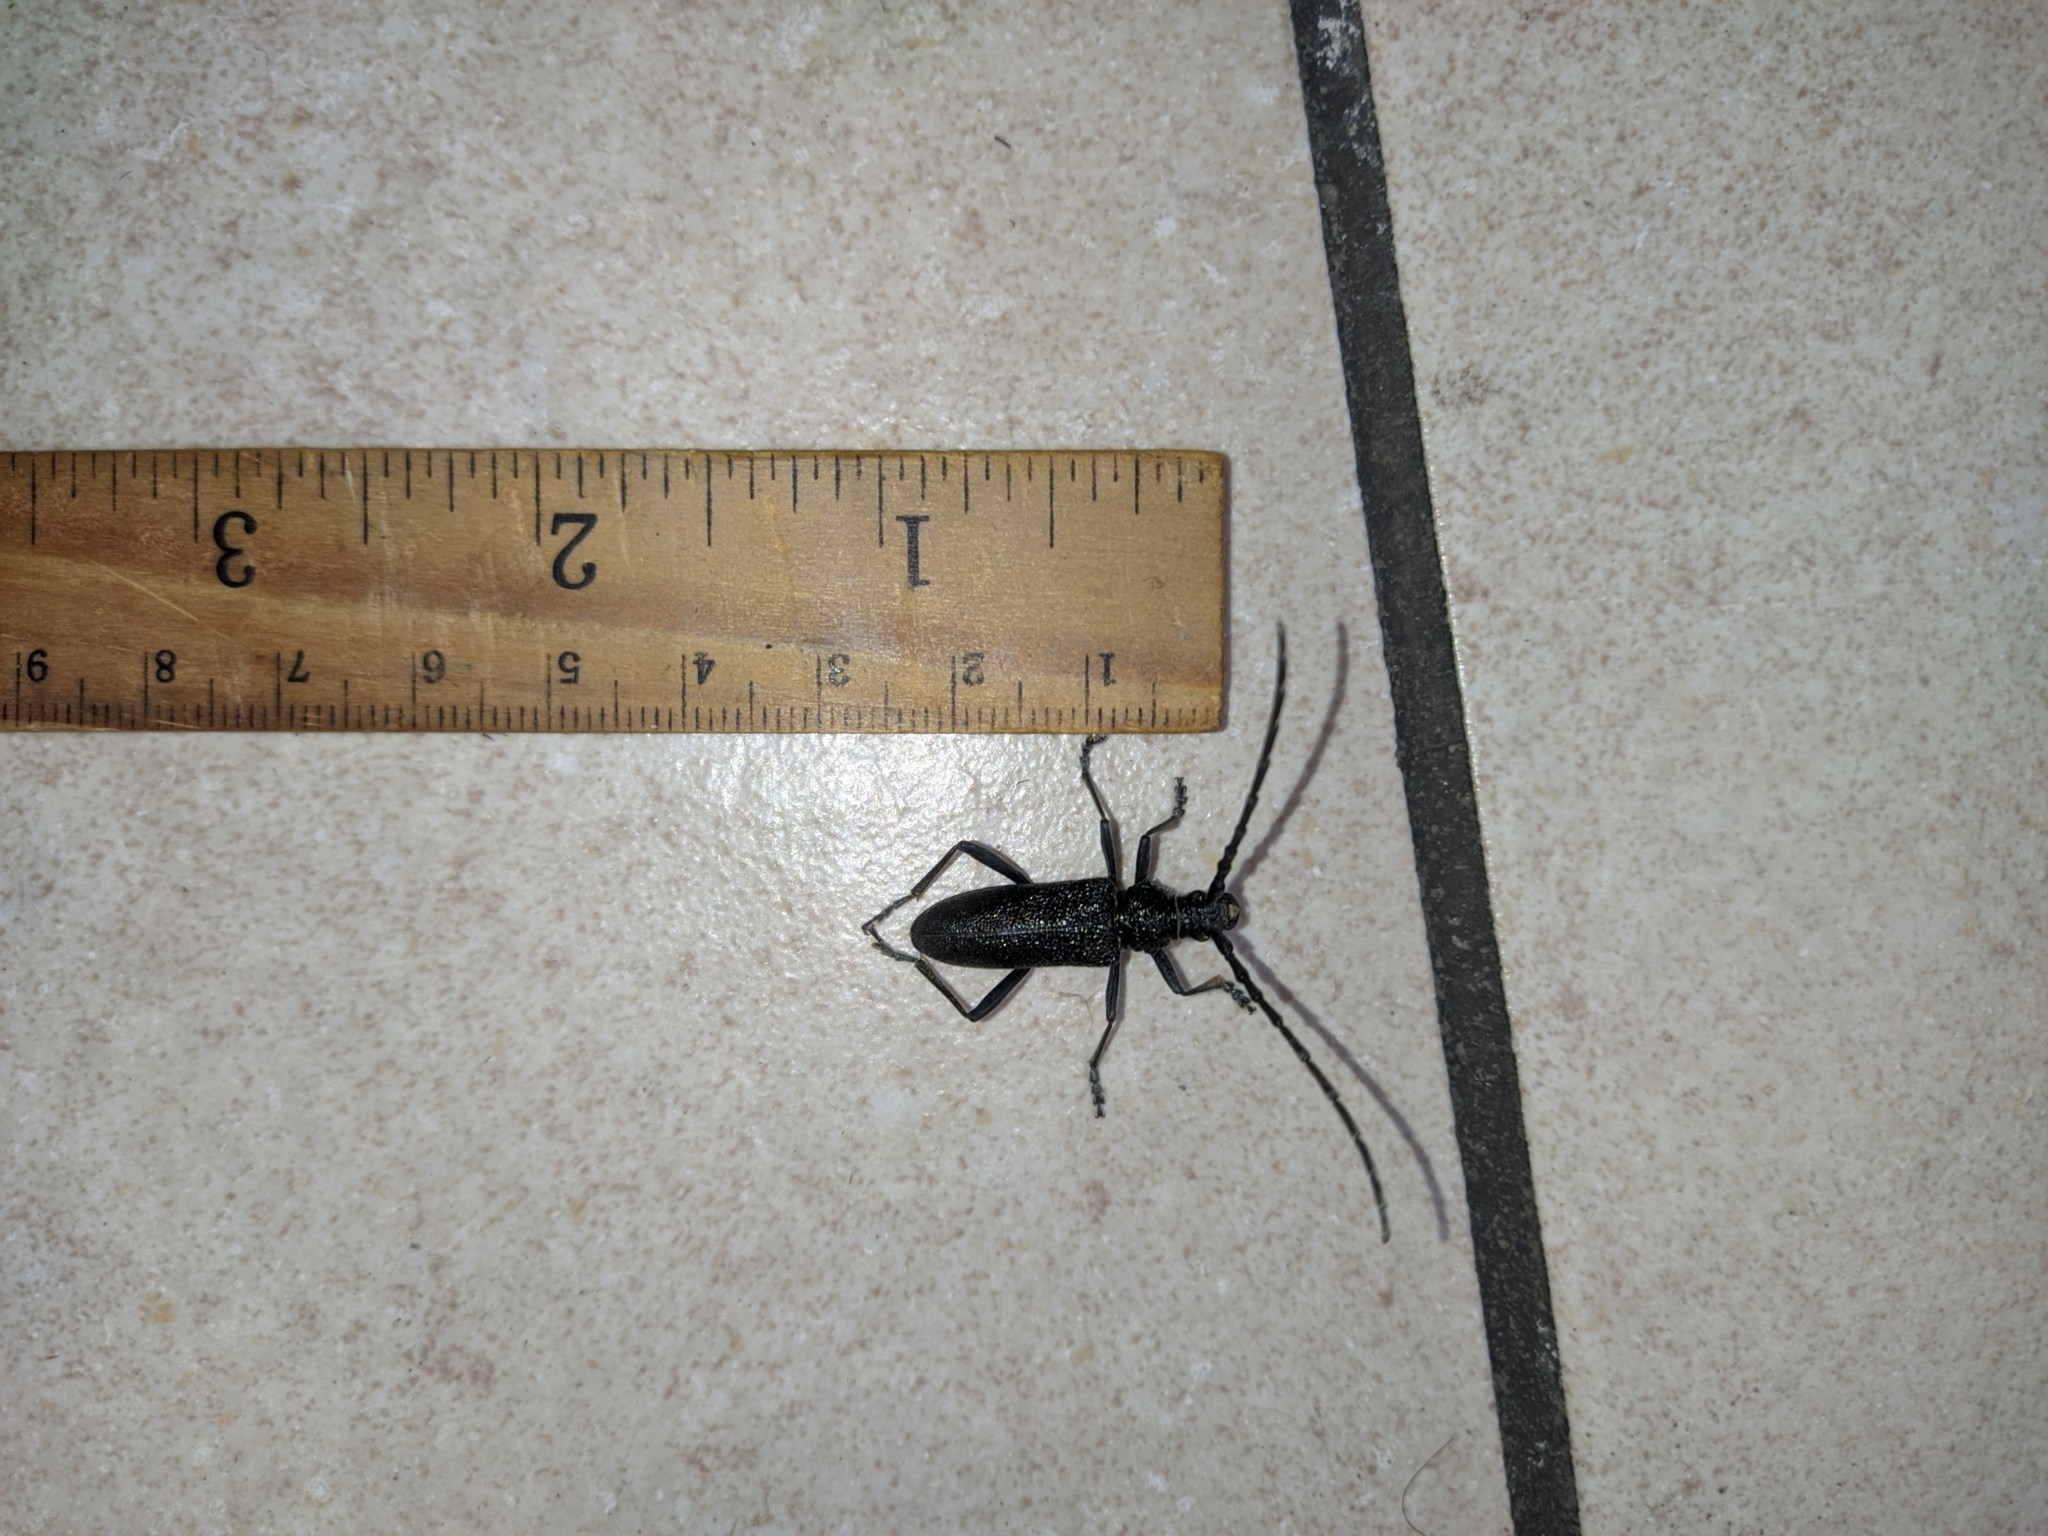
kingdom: Animalia
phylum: Arthropoda
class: Insecta
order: Coleoptera
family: Cerambycidae
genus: Cerambyx
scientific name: Cerambyx scopolii
